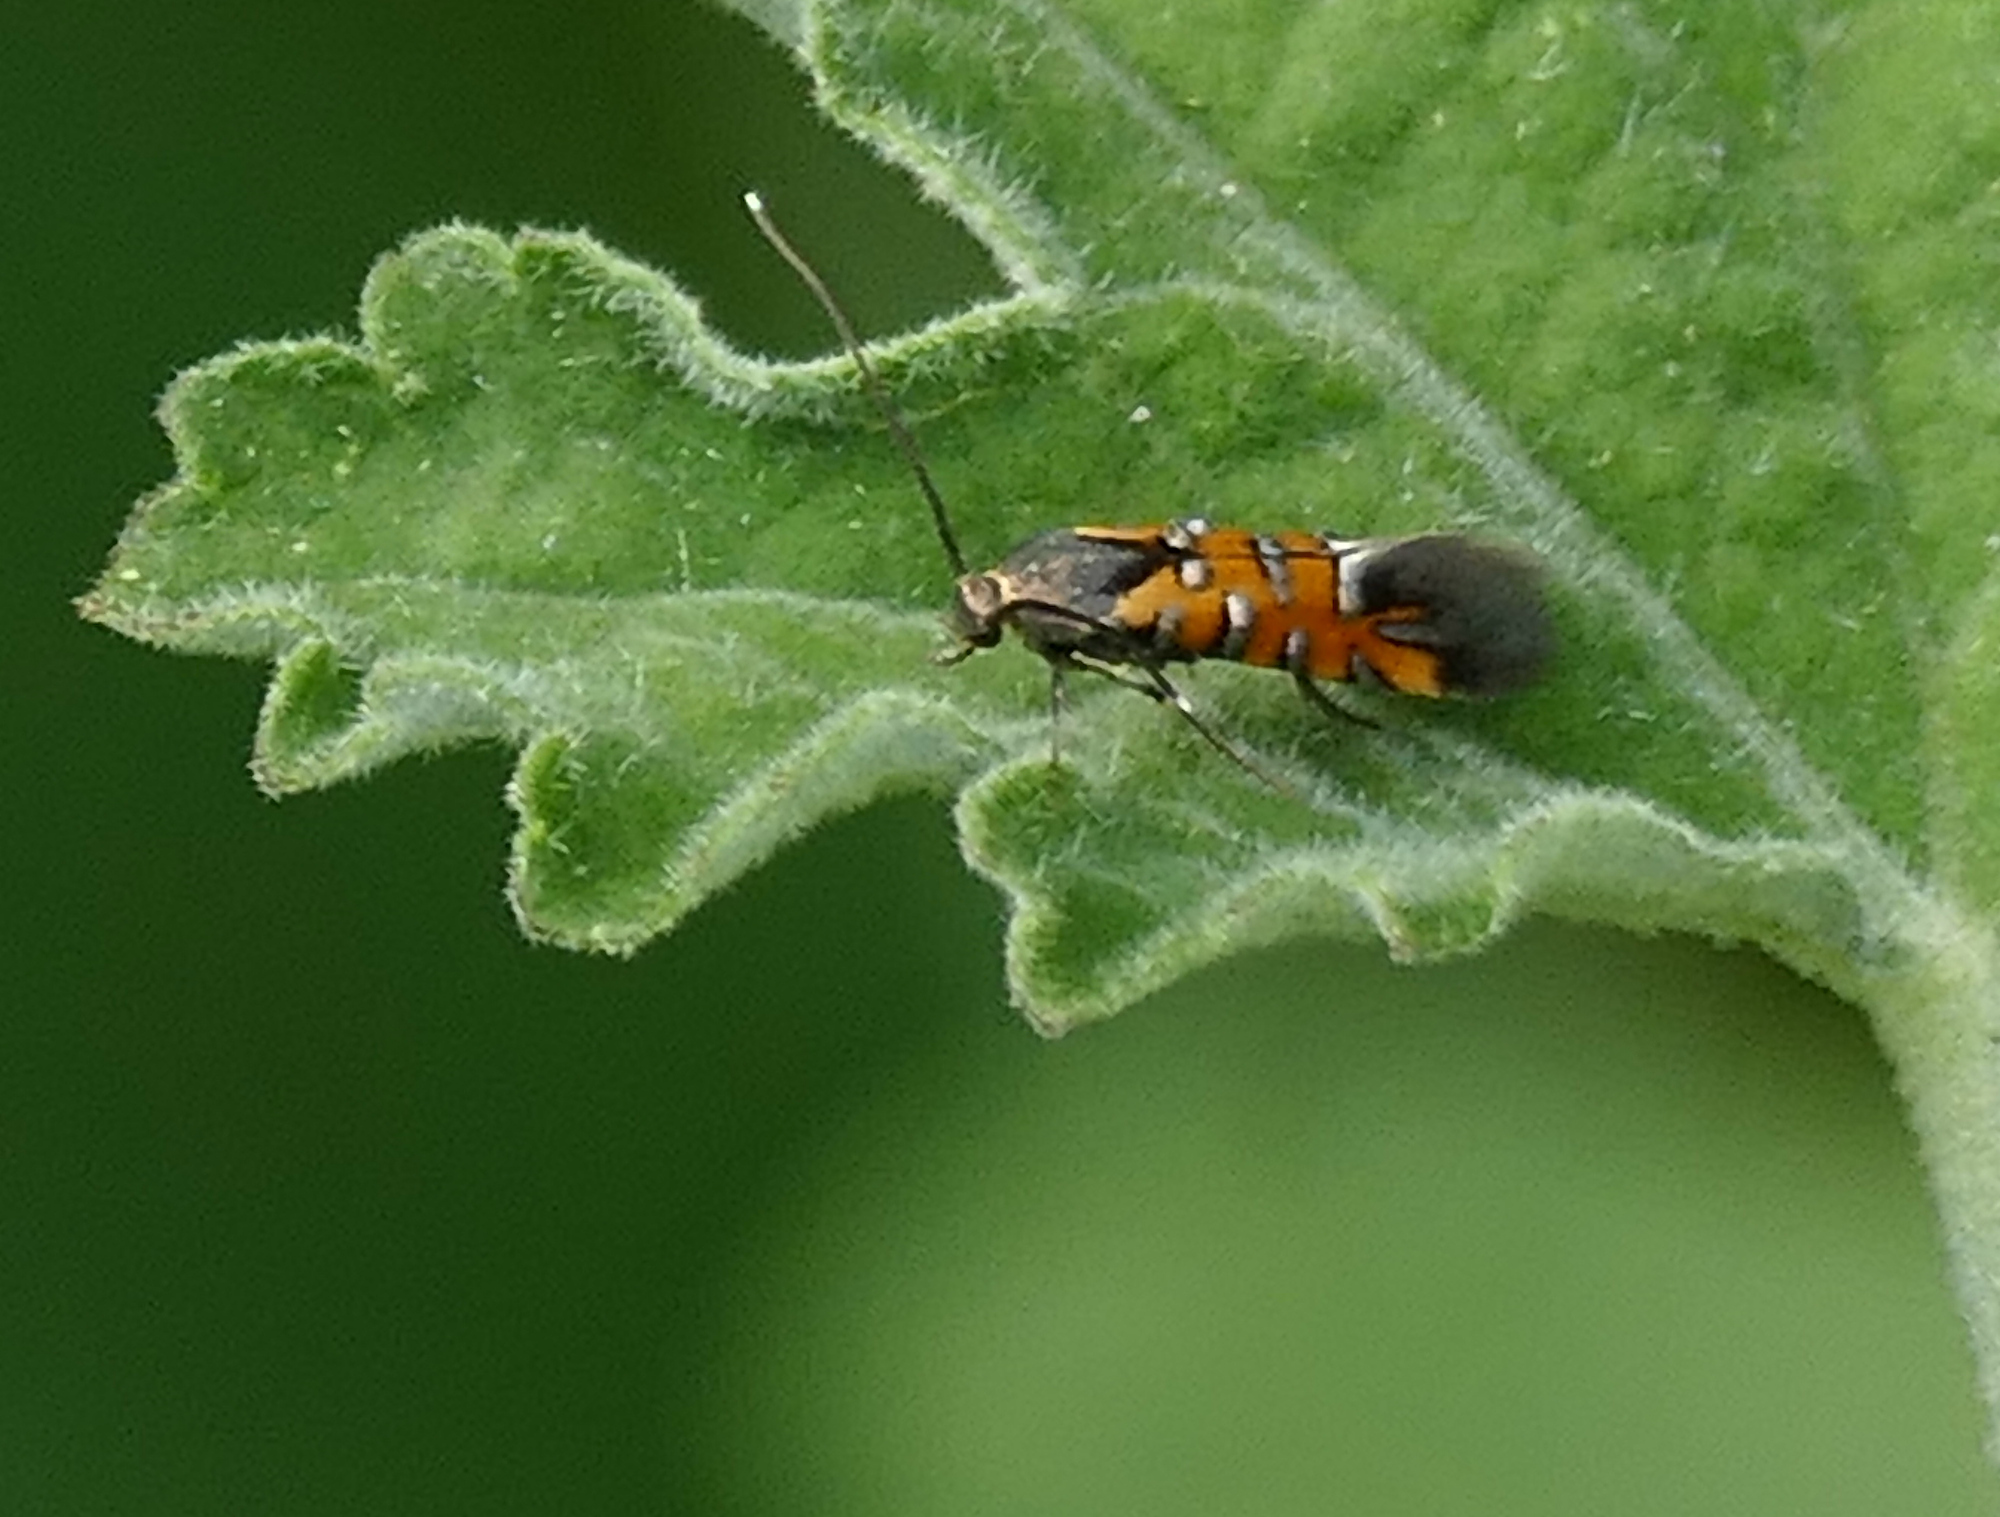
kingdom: Animalia
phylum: Arthropoda
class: Insecta
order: Lepidoptera
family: Heliodinidae
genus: Neoheliodines
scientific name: Neoheliodines
